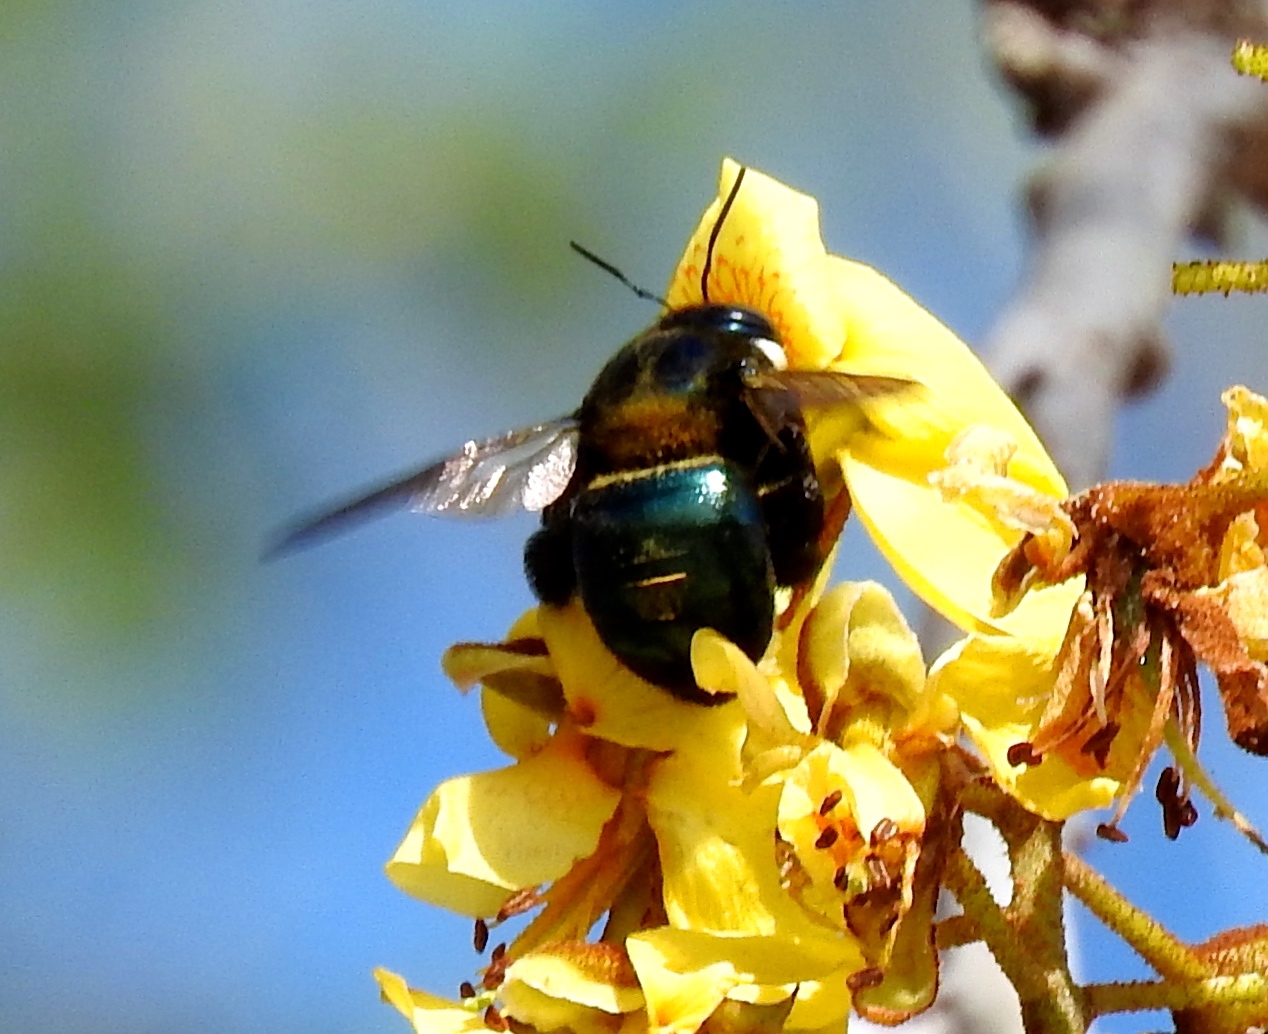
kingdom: Animalia
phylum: Arthropoda
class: Insecta
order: Hymenoptera
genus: Schonnherria
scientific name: Schonnherria
